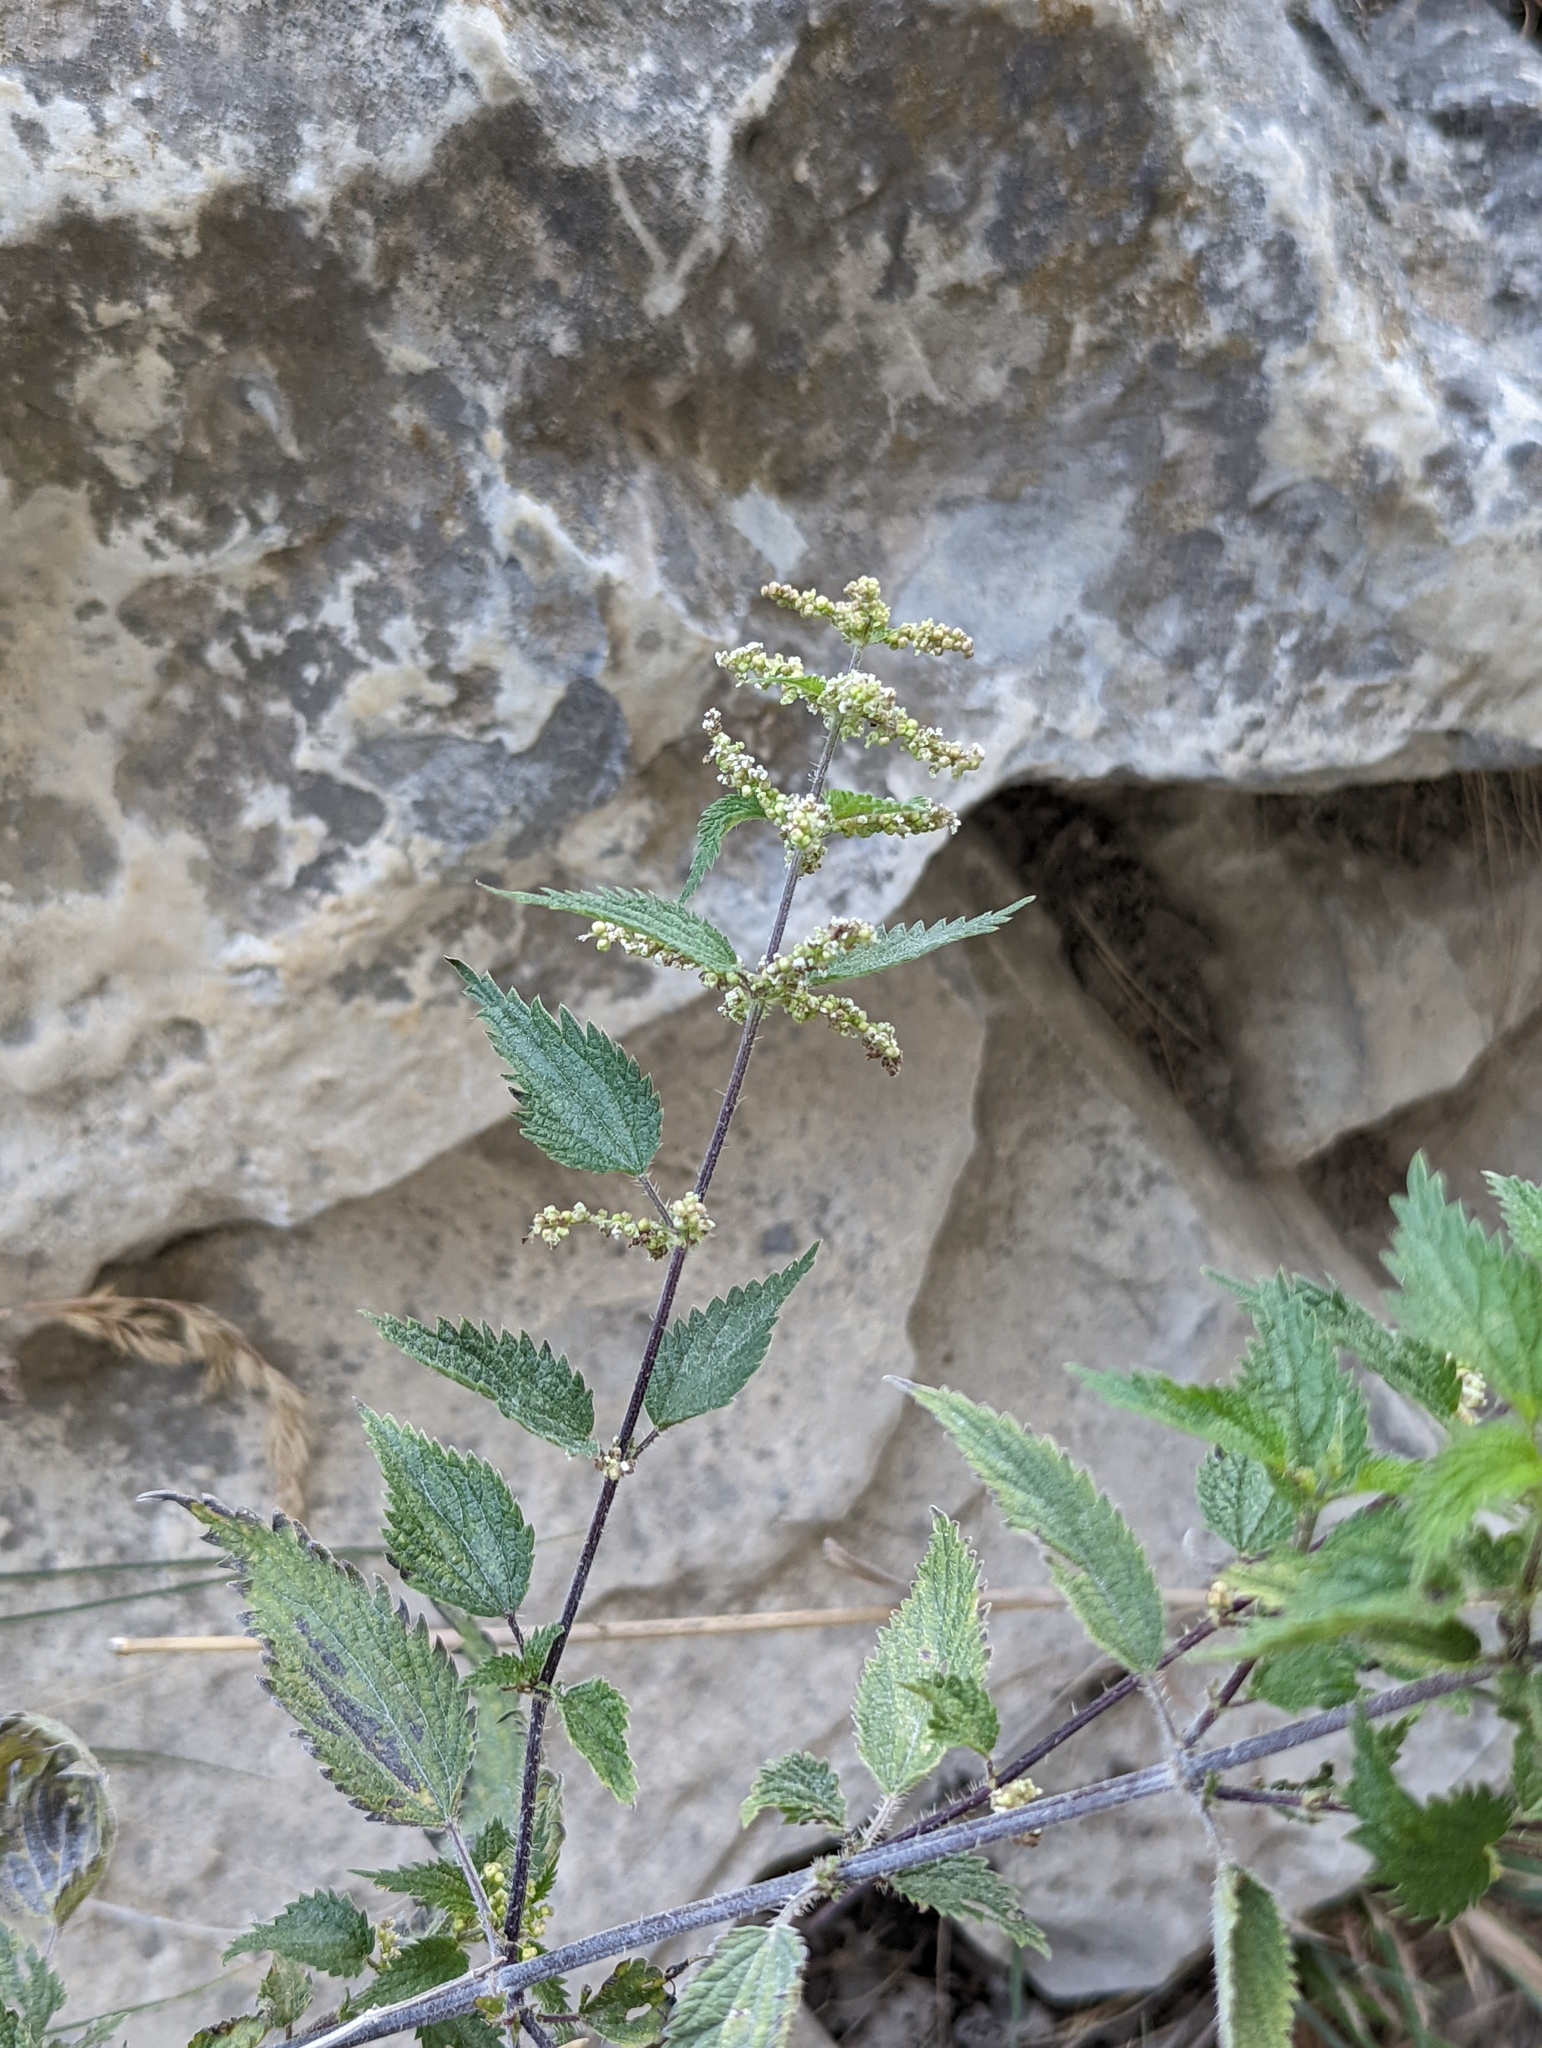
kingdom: Plantae
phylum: Tracheophyta
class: Magnoliopsida
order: Rosales
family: Urticaceae
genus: Urtica
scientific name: Urtica dioica
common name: Common nettle
